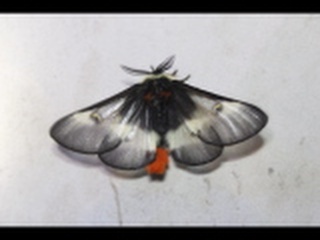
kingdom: Animalia
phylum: Arthropoda
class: Insecta
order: Lepidoptera
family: Saturniidae
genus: Hemileuca
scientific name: Hemileuca maia
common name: Eastern buckmoth
